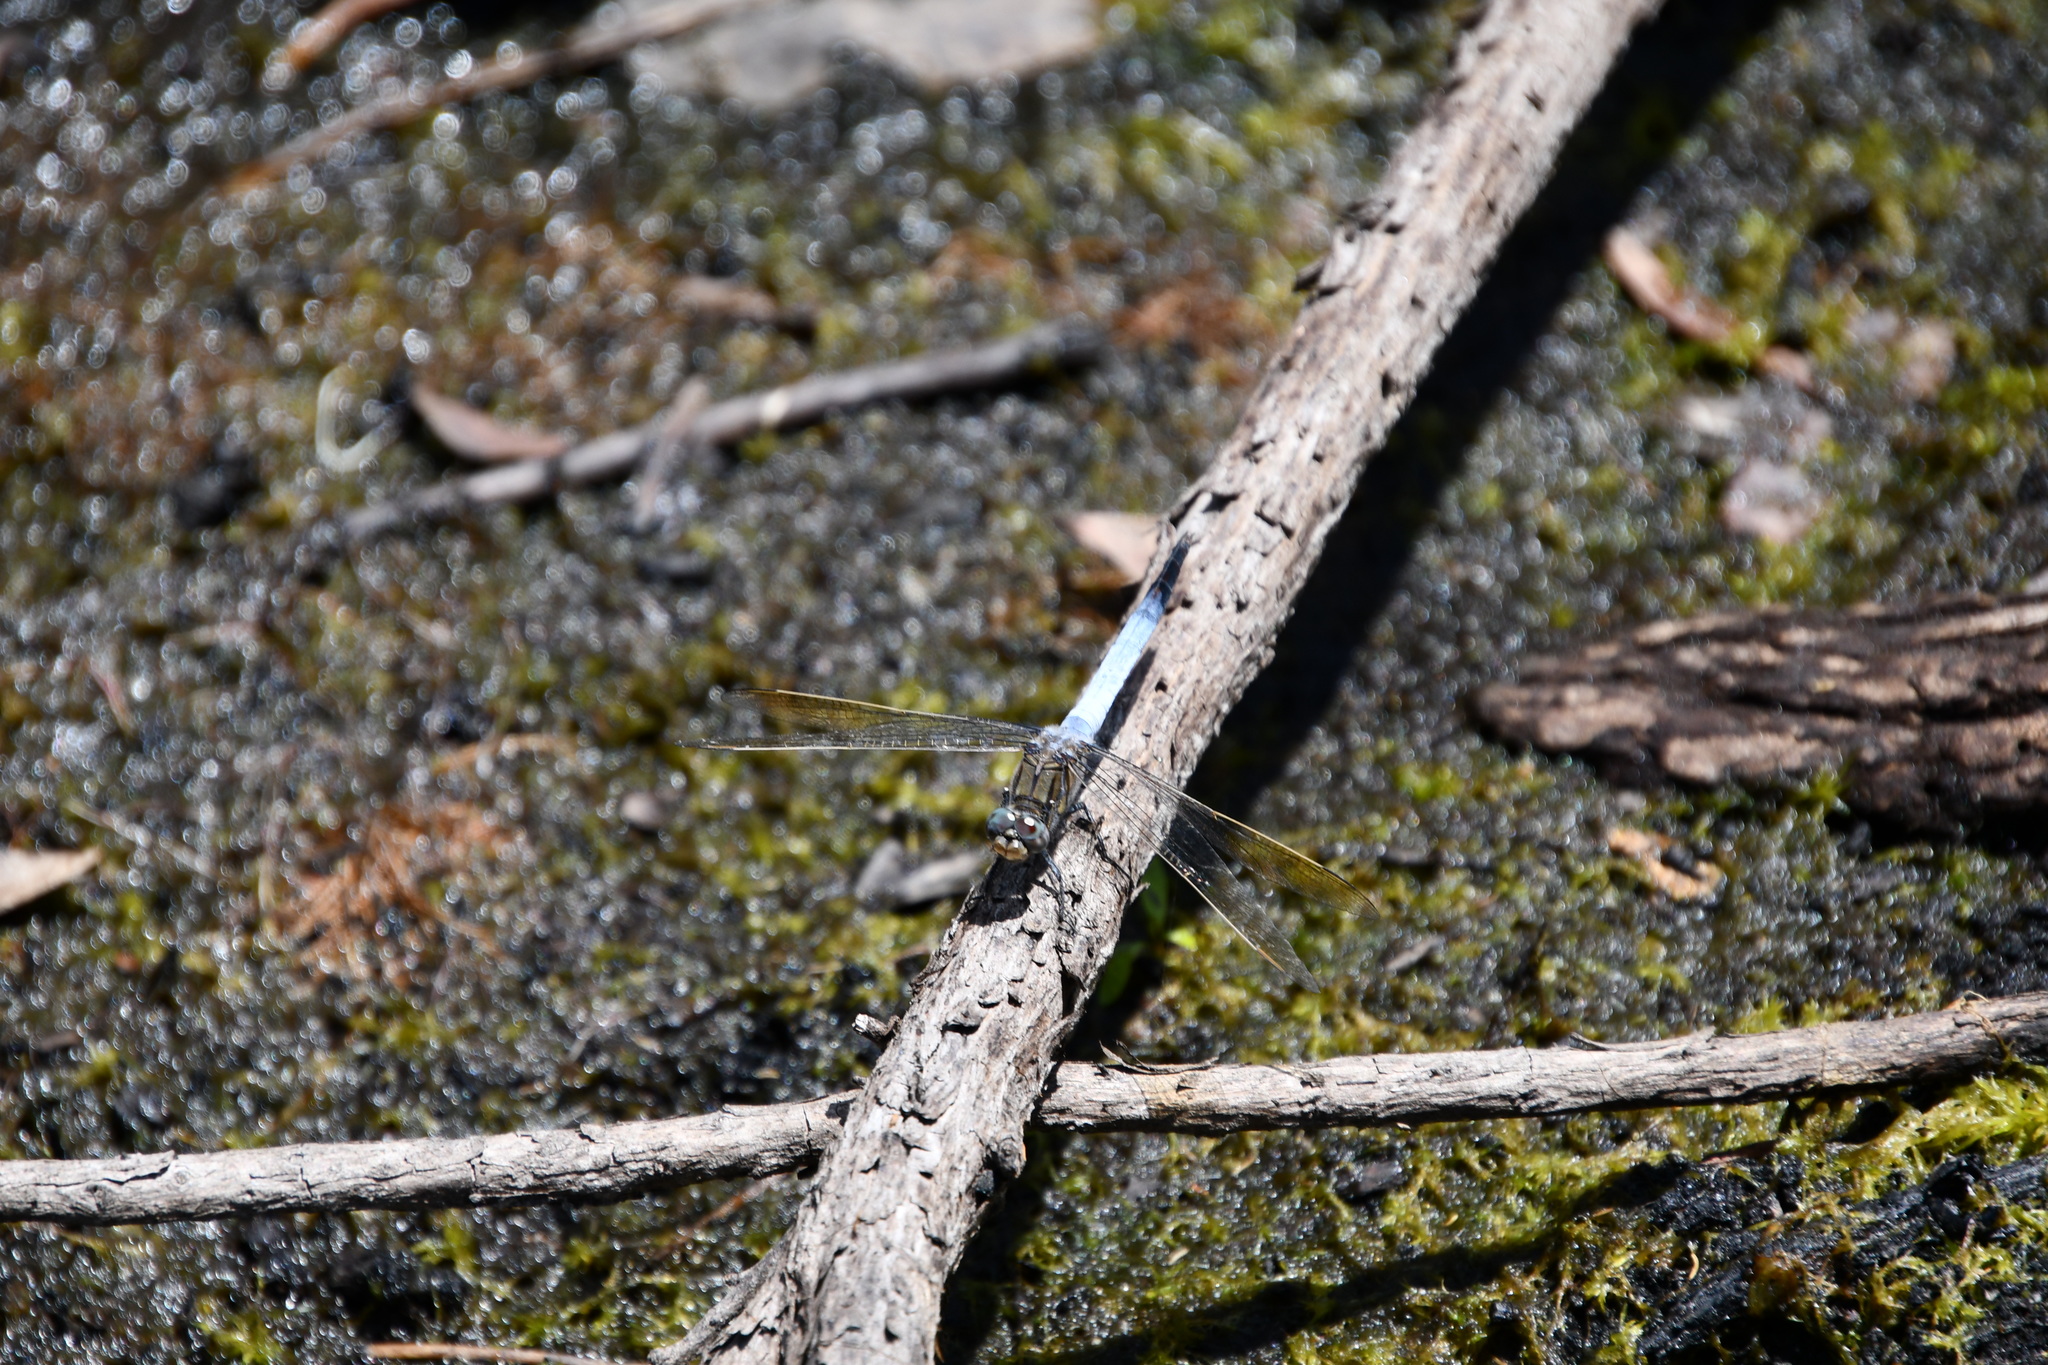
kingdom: Animalia
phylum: Arthropoda
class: Insecta
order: Odonata
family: Libellulidae
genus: Orthetrum
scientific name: Orthetrum caledonicum
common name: Blue skimmer
